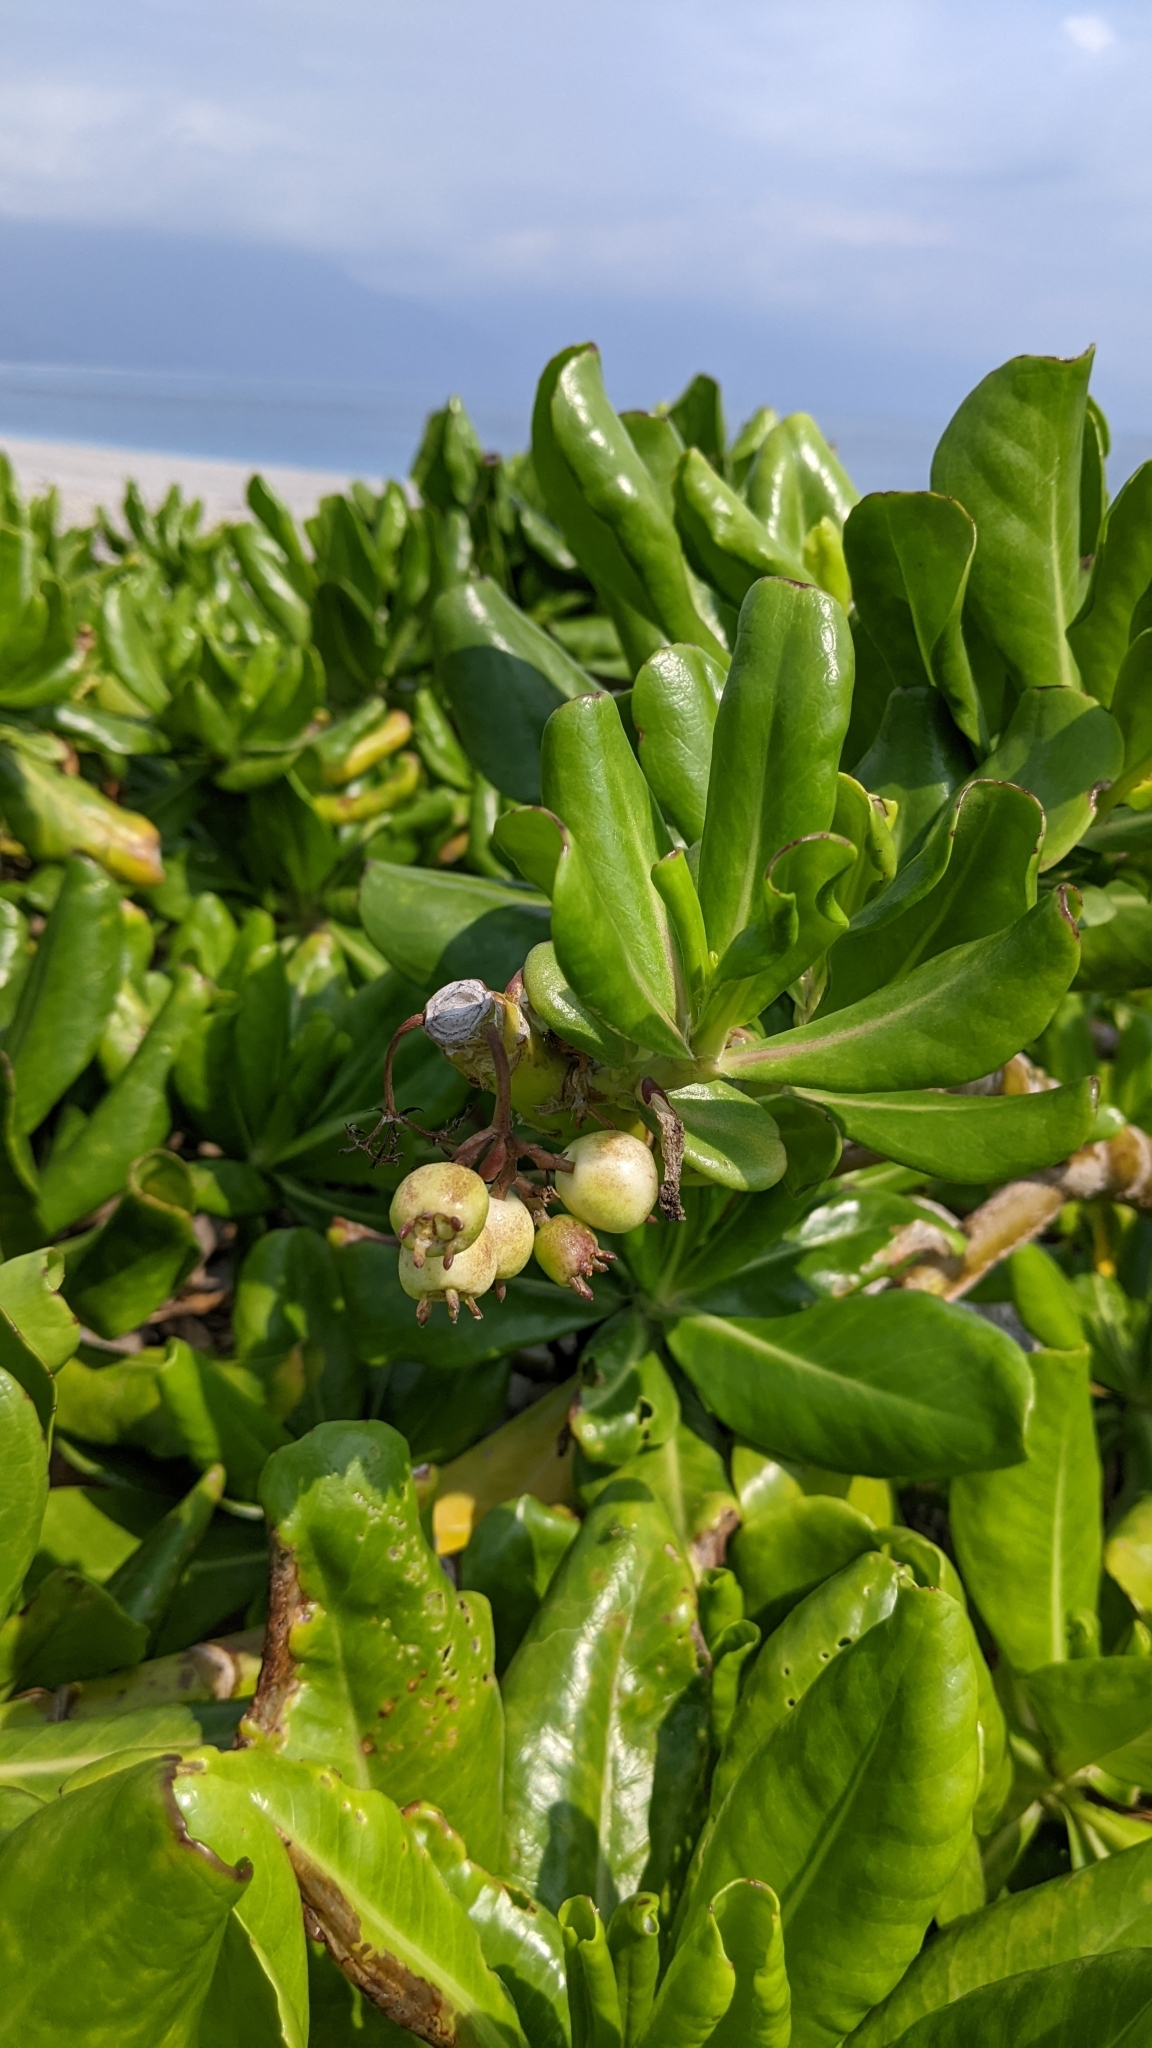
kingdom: Plantae
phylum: Tracheophyta
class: Magnoliopsida
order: Asterales
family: Goodeniaceae
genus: Scaevola
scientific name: Scaevola taccada
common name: Sea lettucetree
